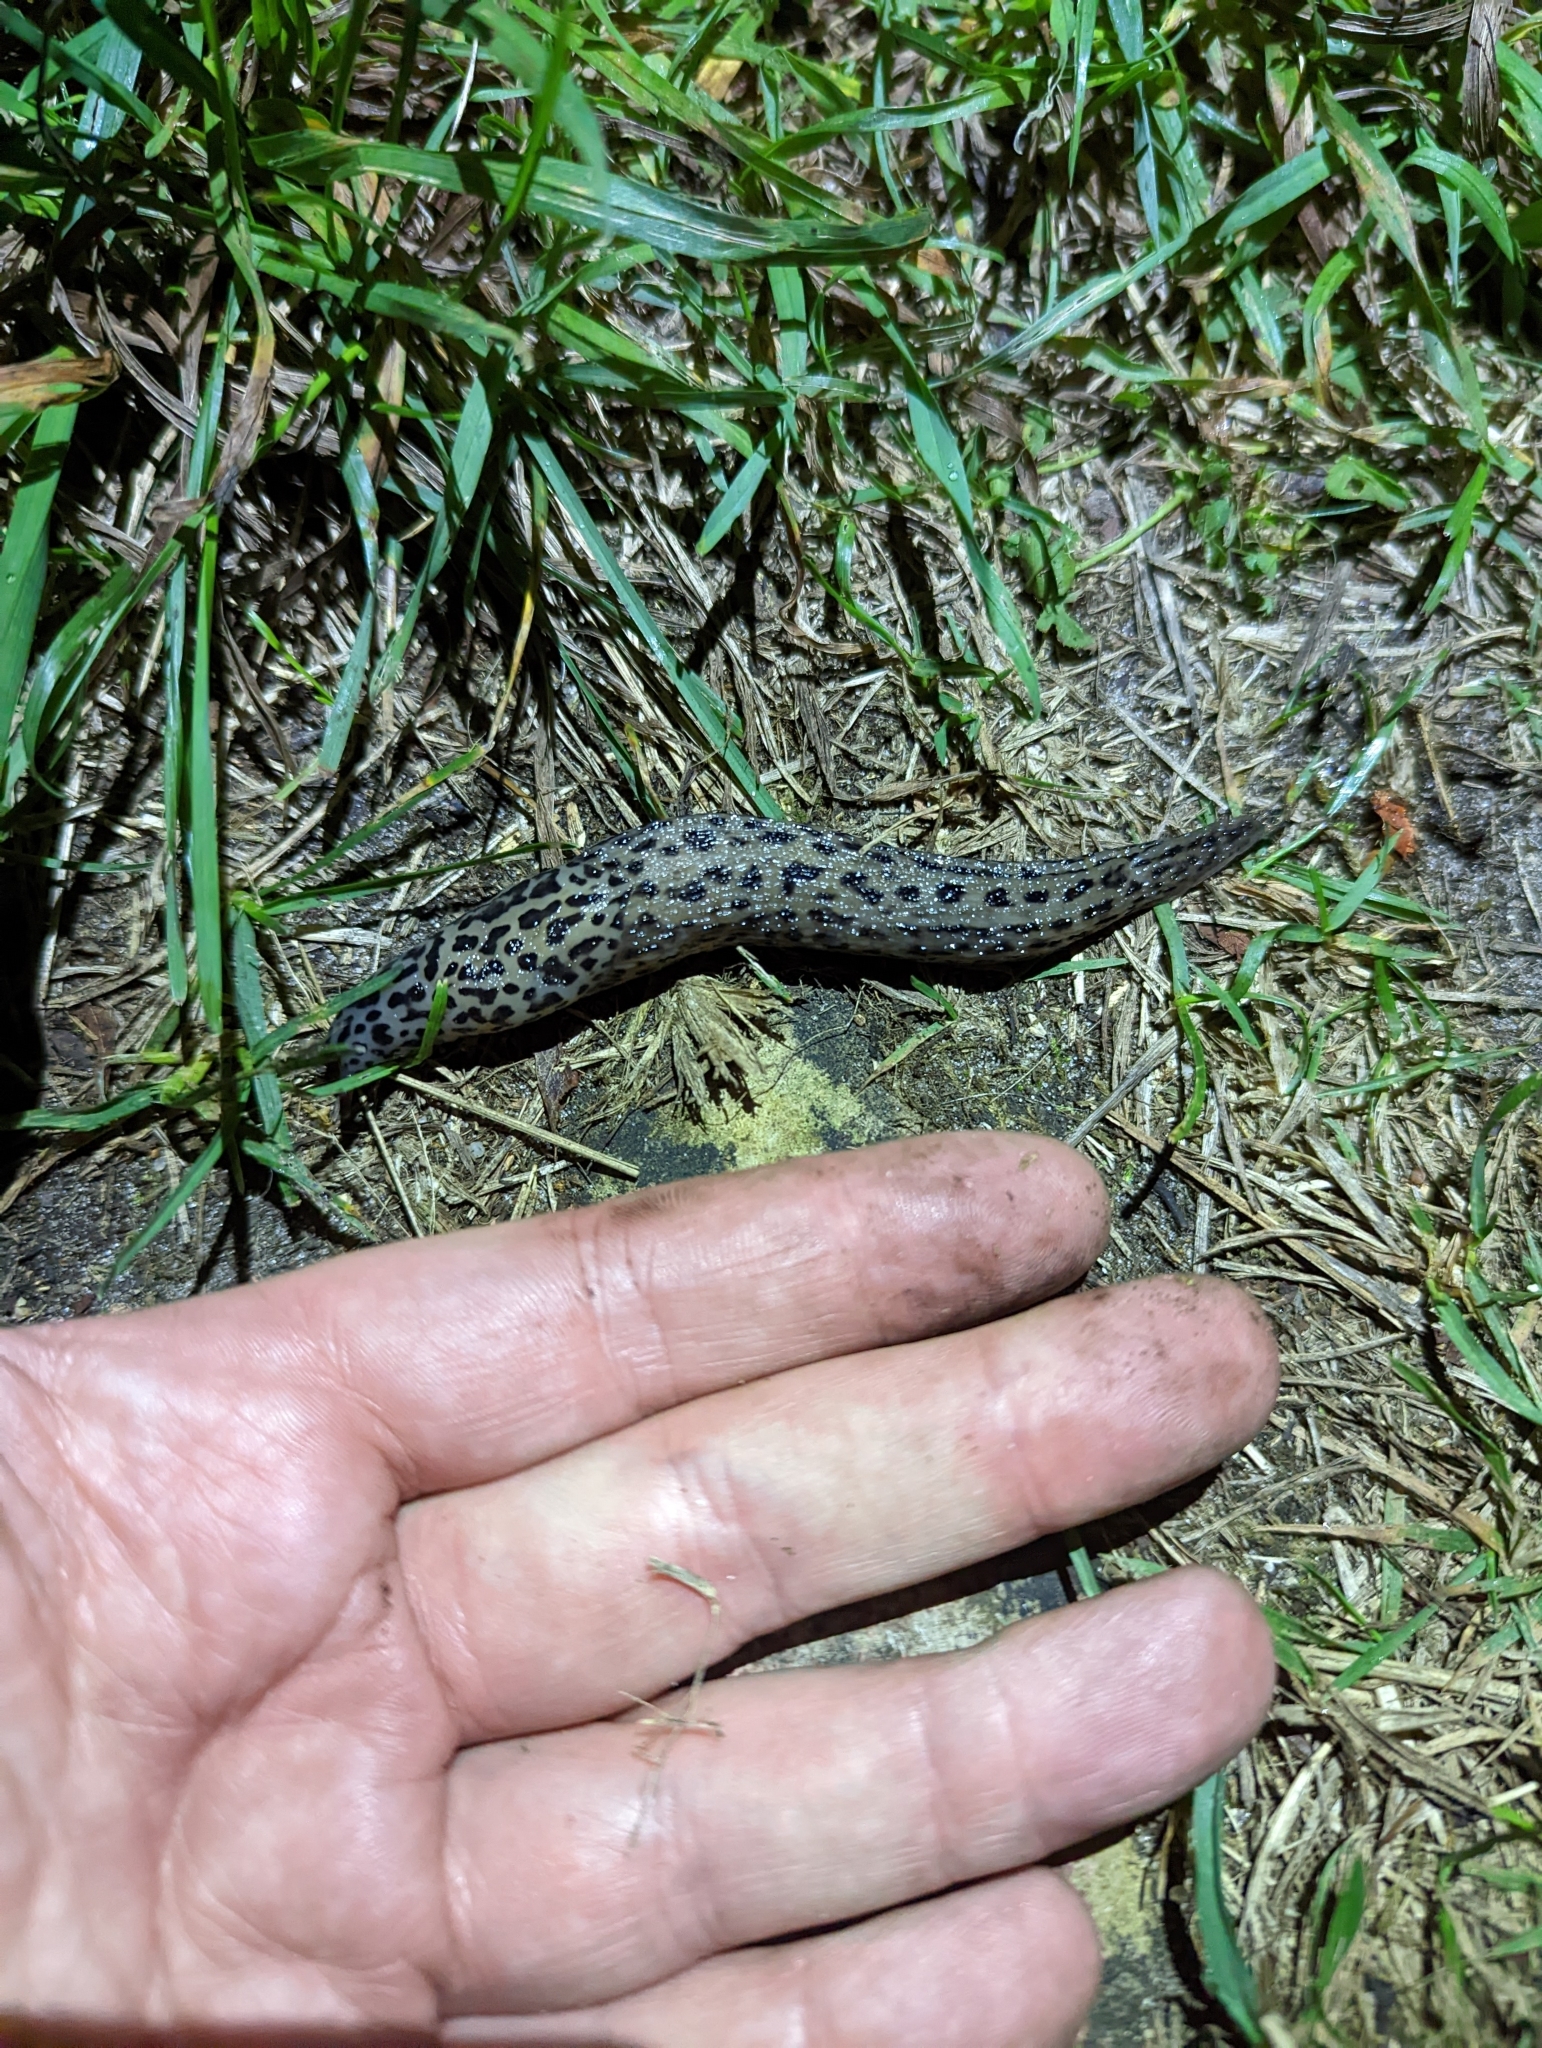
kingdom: Animalia
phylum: Mollusca
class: Gastropoda
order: Stylommatophora
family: Limacidae
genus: Limax
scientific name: Limax maximus
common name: Great grey slug
